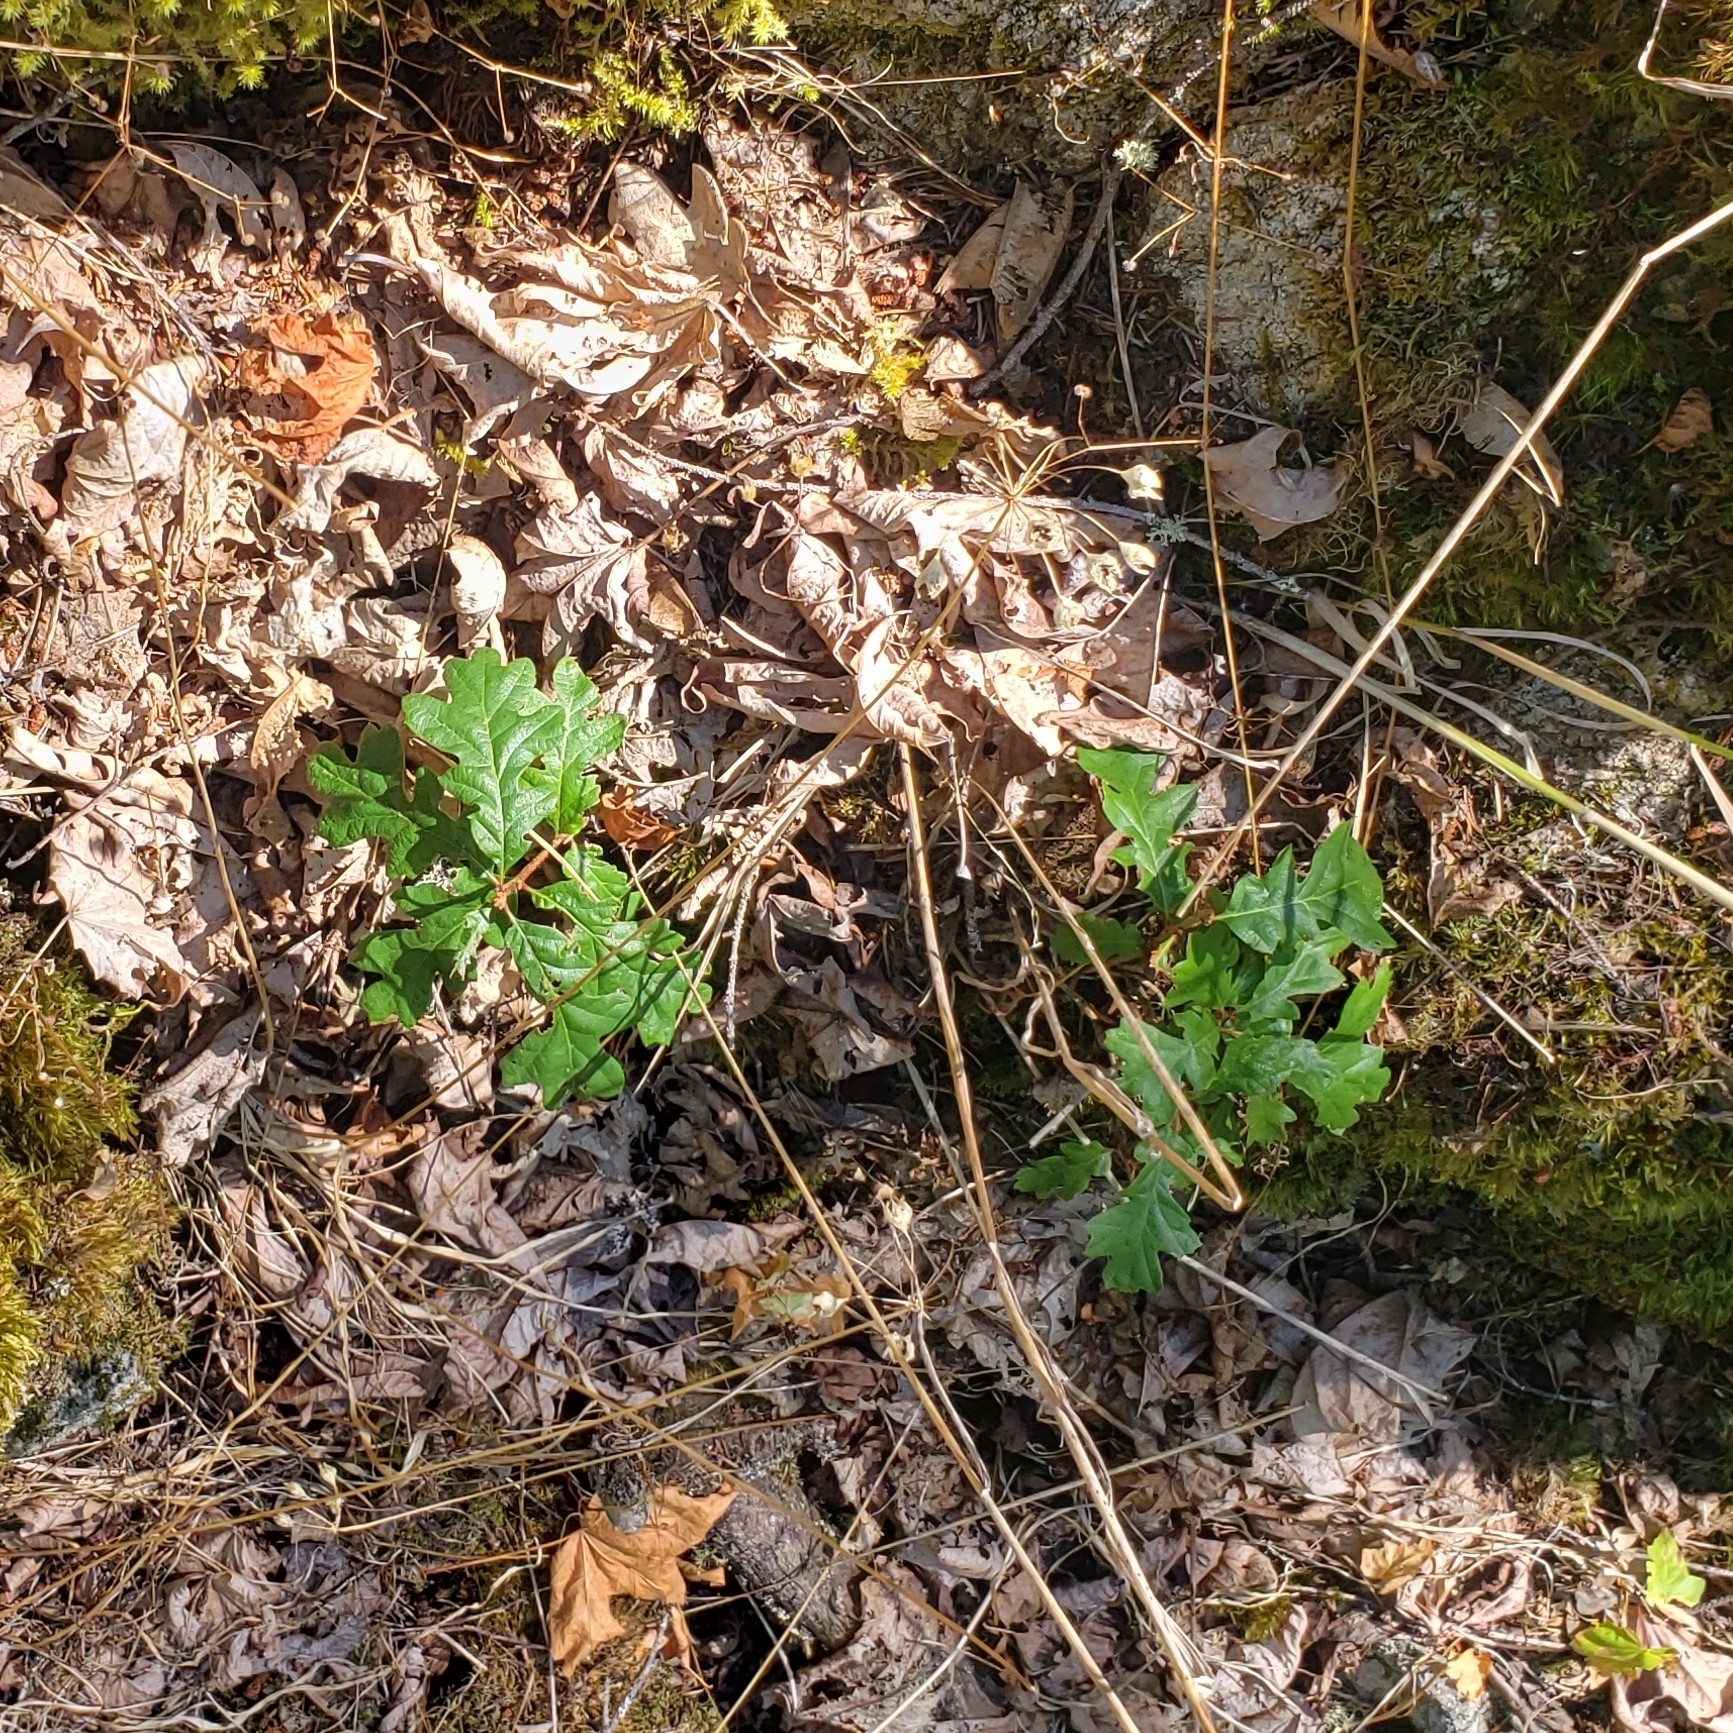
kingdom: Plantae
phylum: Tracheophyta
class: Magnoliopsida
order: Fagales
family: Fagaceae
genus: Quercus
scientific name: Quercus garryana
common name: Garry oak
